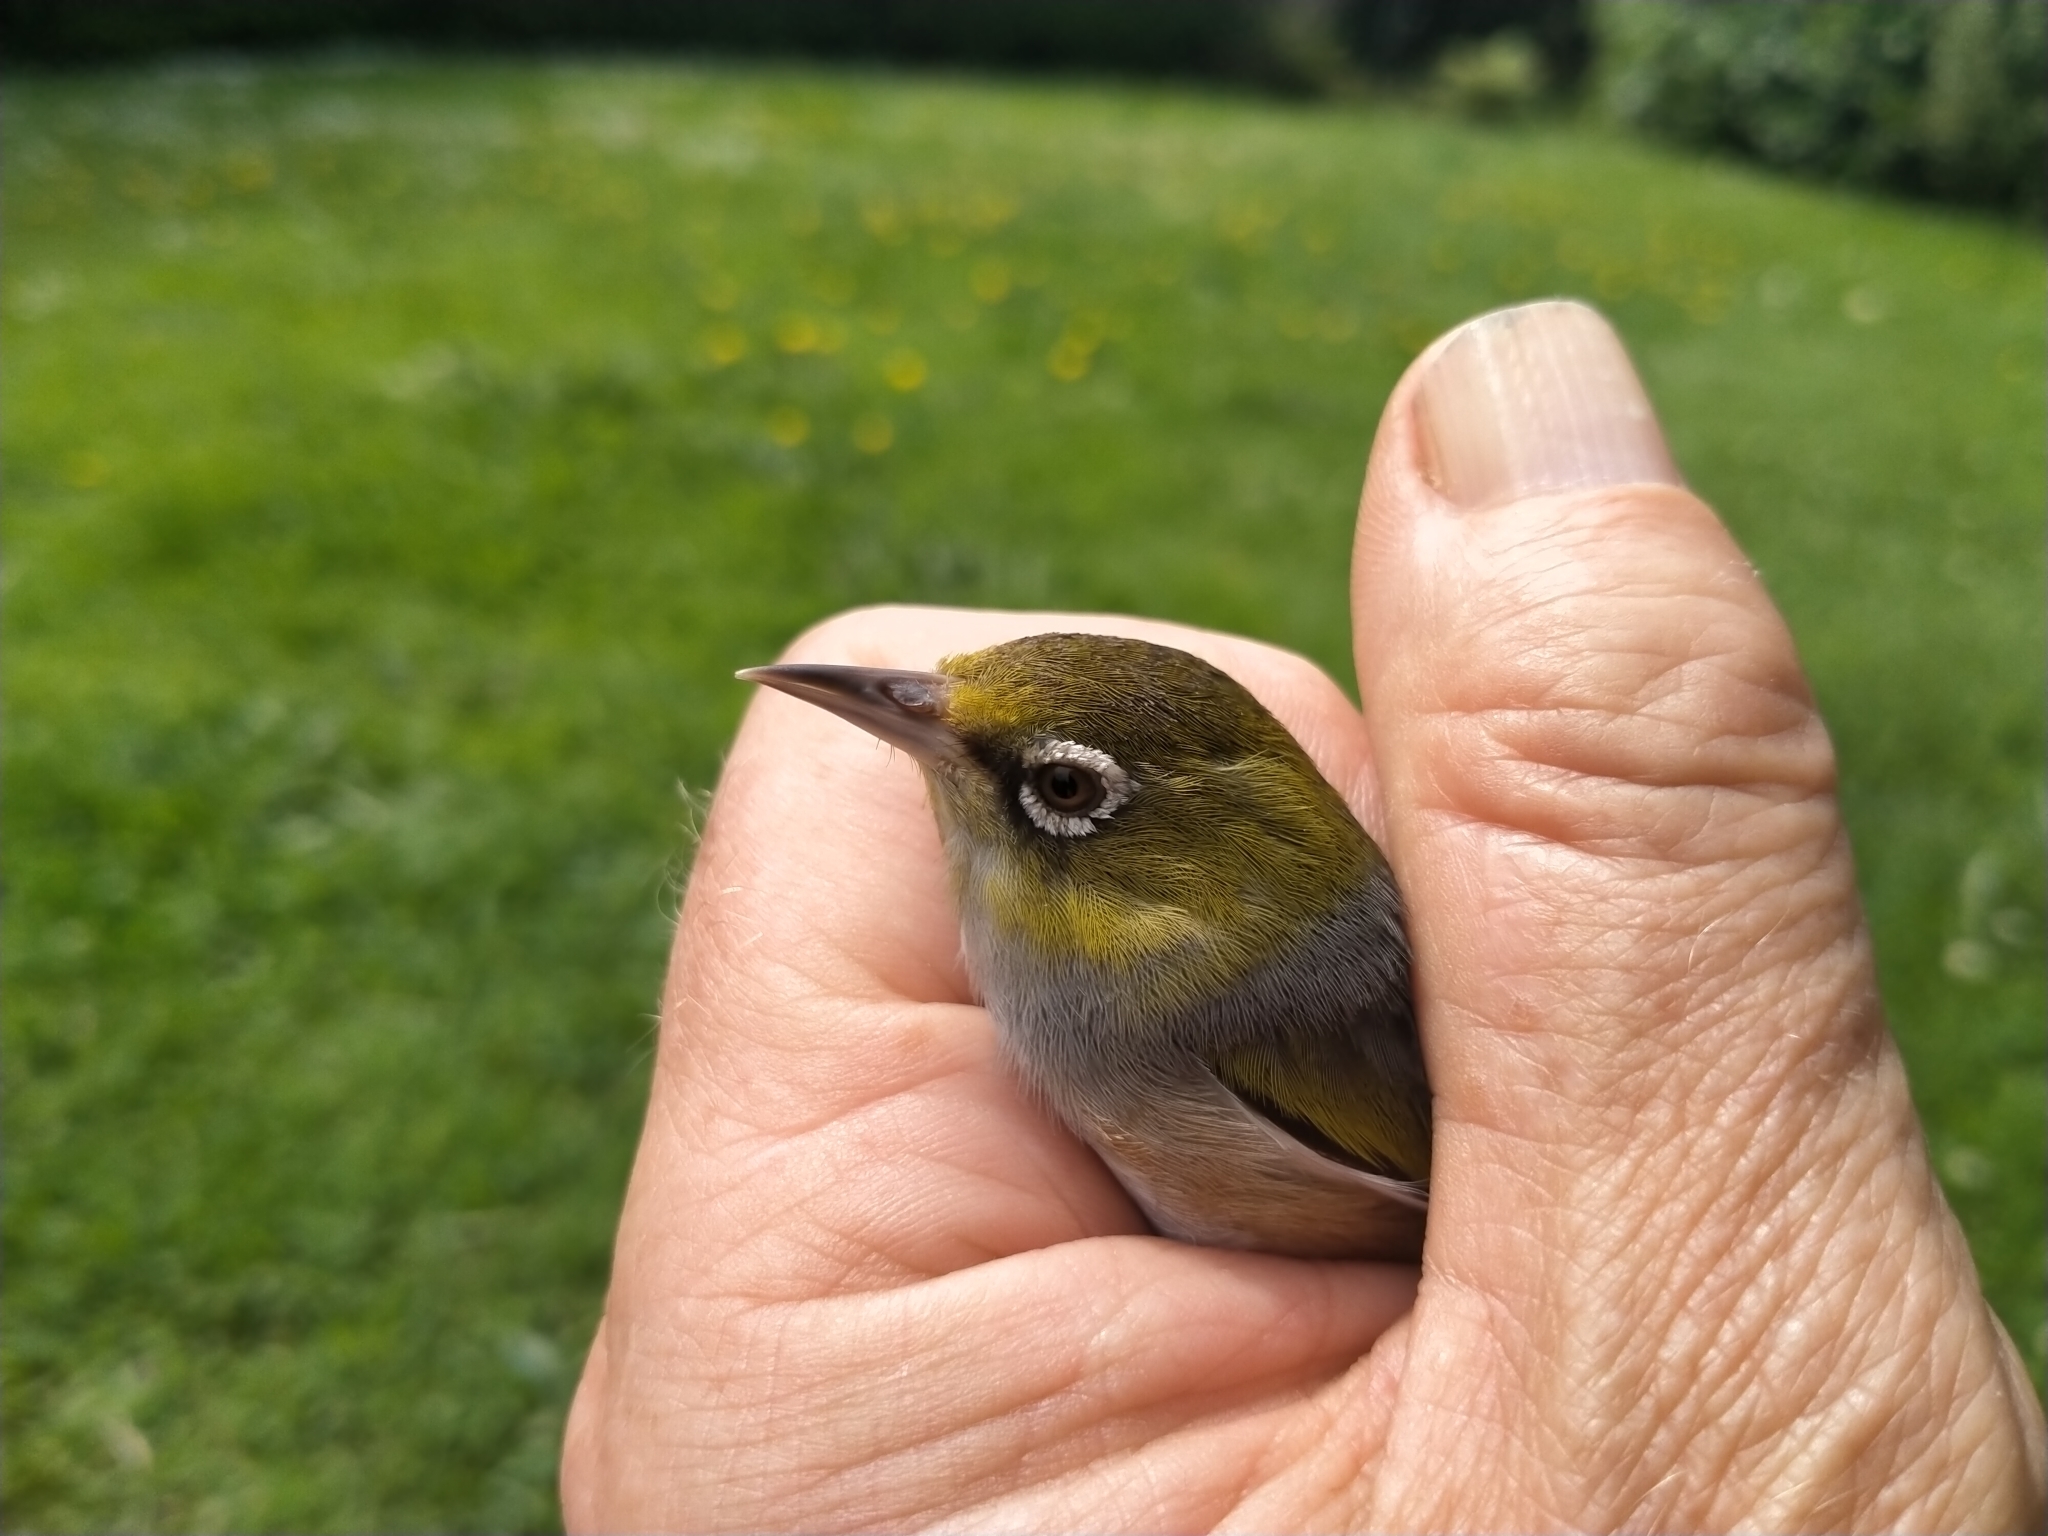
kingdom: Animalia
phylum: Chordata
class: Aves
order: Passeriformes
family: Zosteropidae
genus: Zosterops
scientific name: Zosterops lateralis
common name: Silvereye
